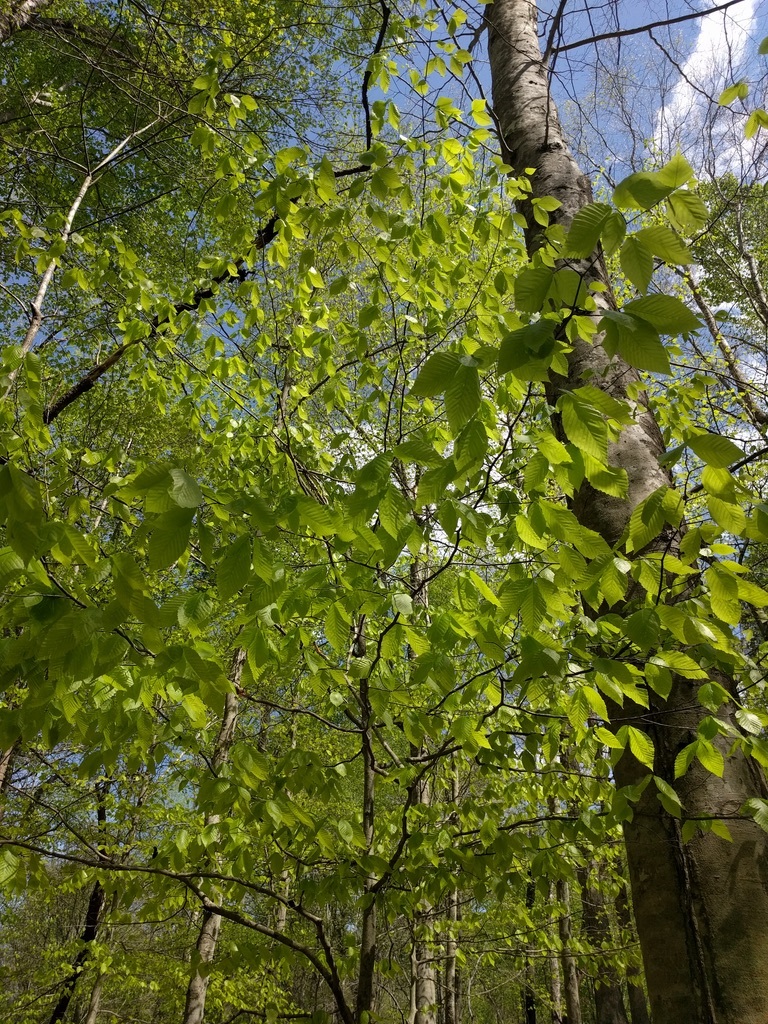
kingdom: Plantae
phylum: Tracheophyta
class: Magnoliopsida
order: Fagales
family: Fagaceae
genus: Fagus
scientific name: Fagus grandifolia
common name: American beech
